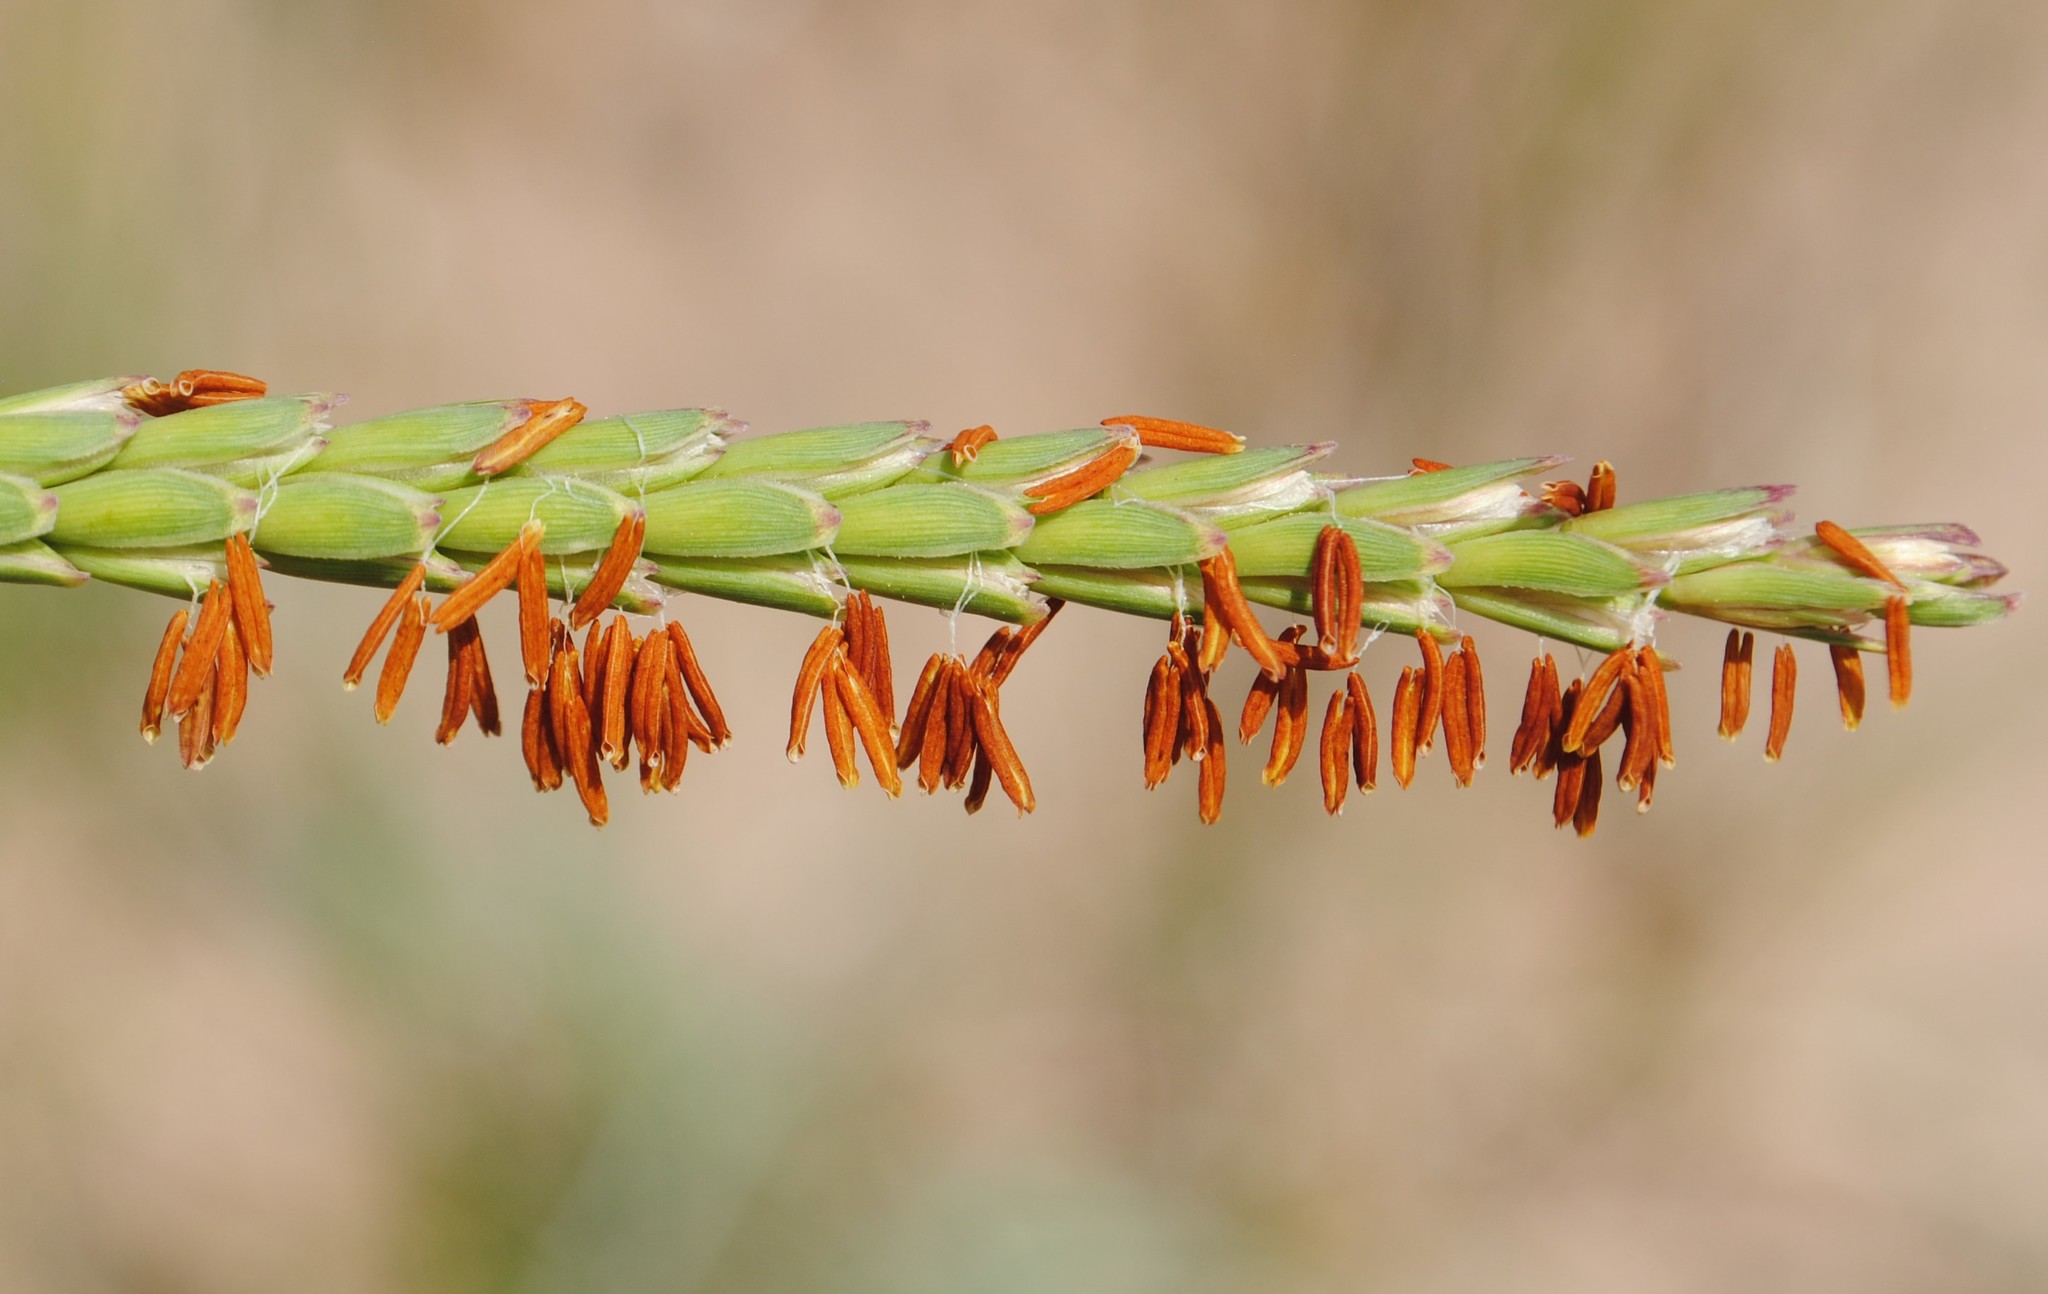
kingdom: Plantae
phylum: Tracheophyta
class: Liliopsida
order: Poales
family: Poaceae
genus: Tripsacum
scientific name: Tripsacum dactyloides
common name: Buffalo-grass
